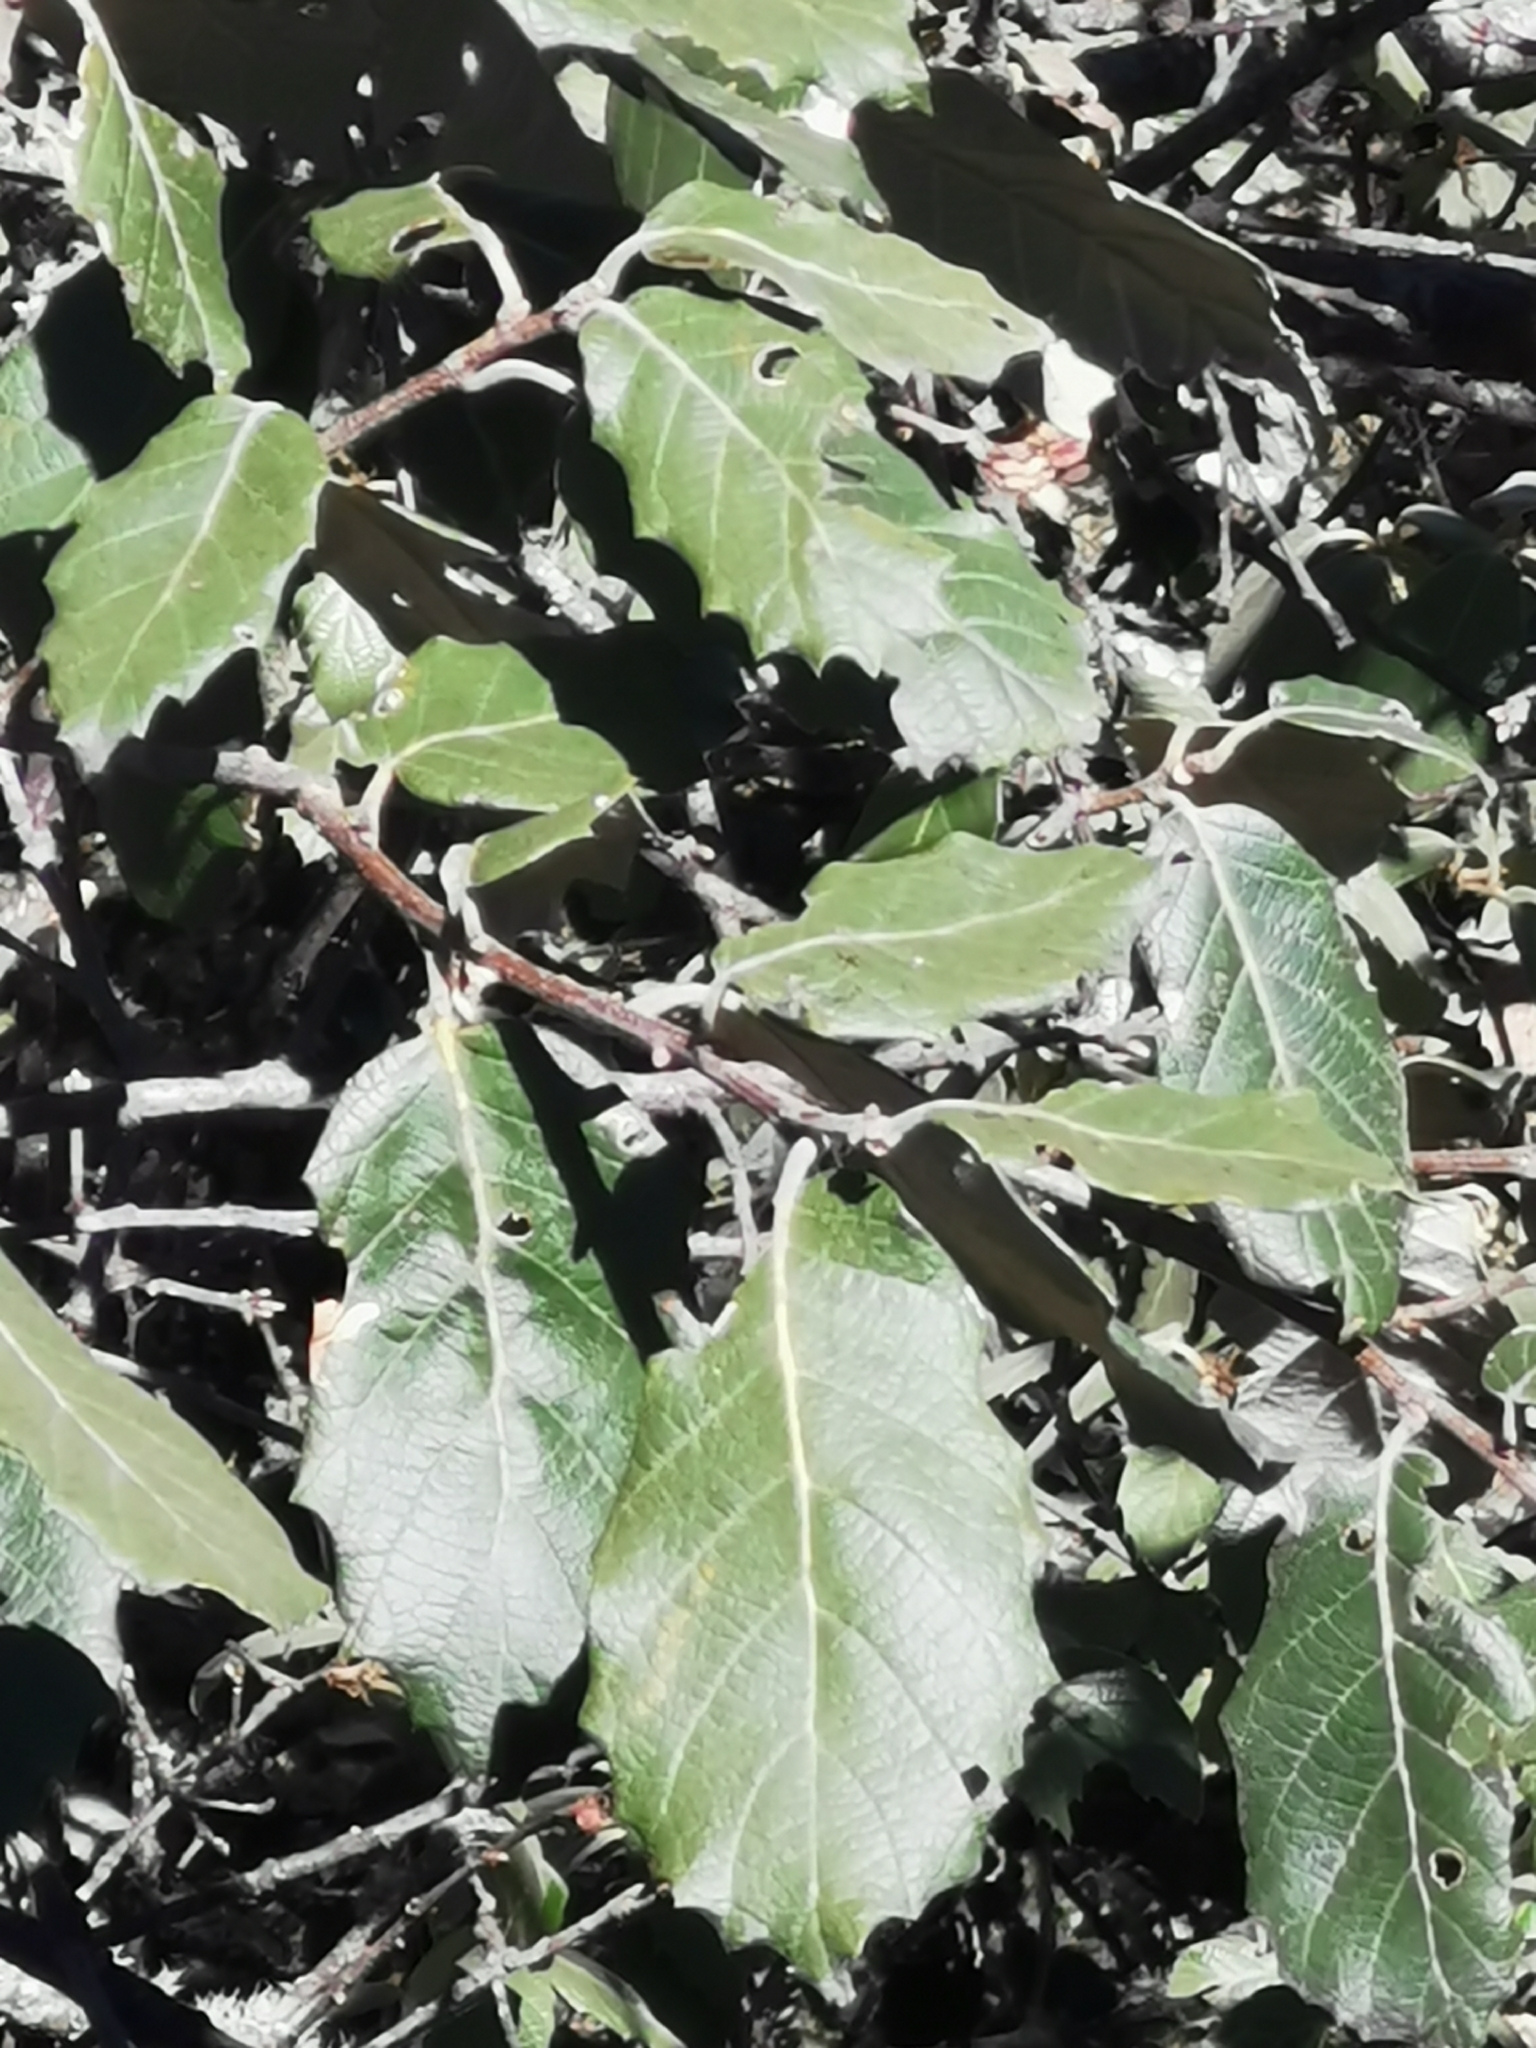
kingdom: Plantae
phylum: Tracheophyta
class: Magnoliopsida
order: Fagales
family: Fagaceae
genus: Quercus
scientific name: Quercus calophylla
